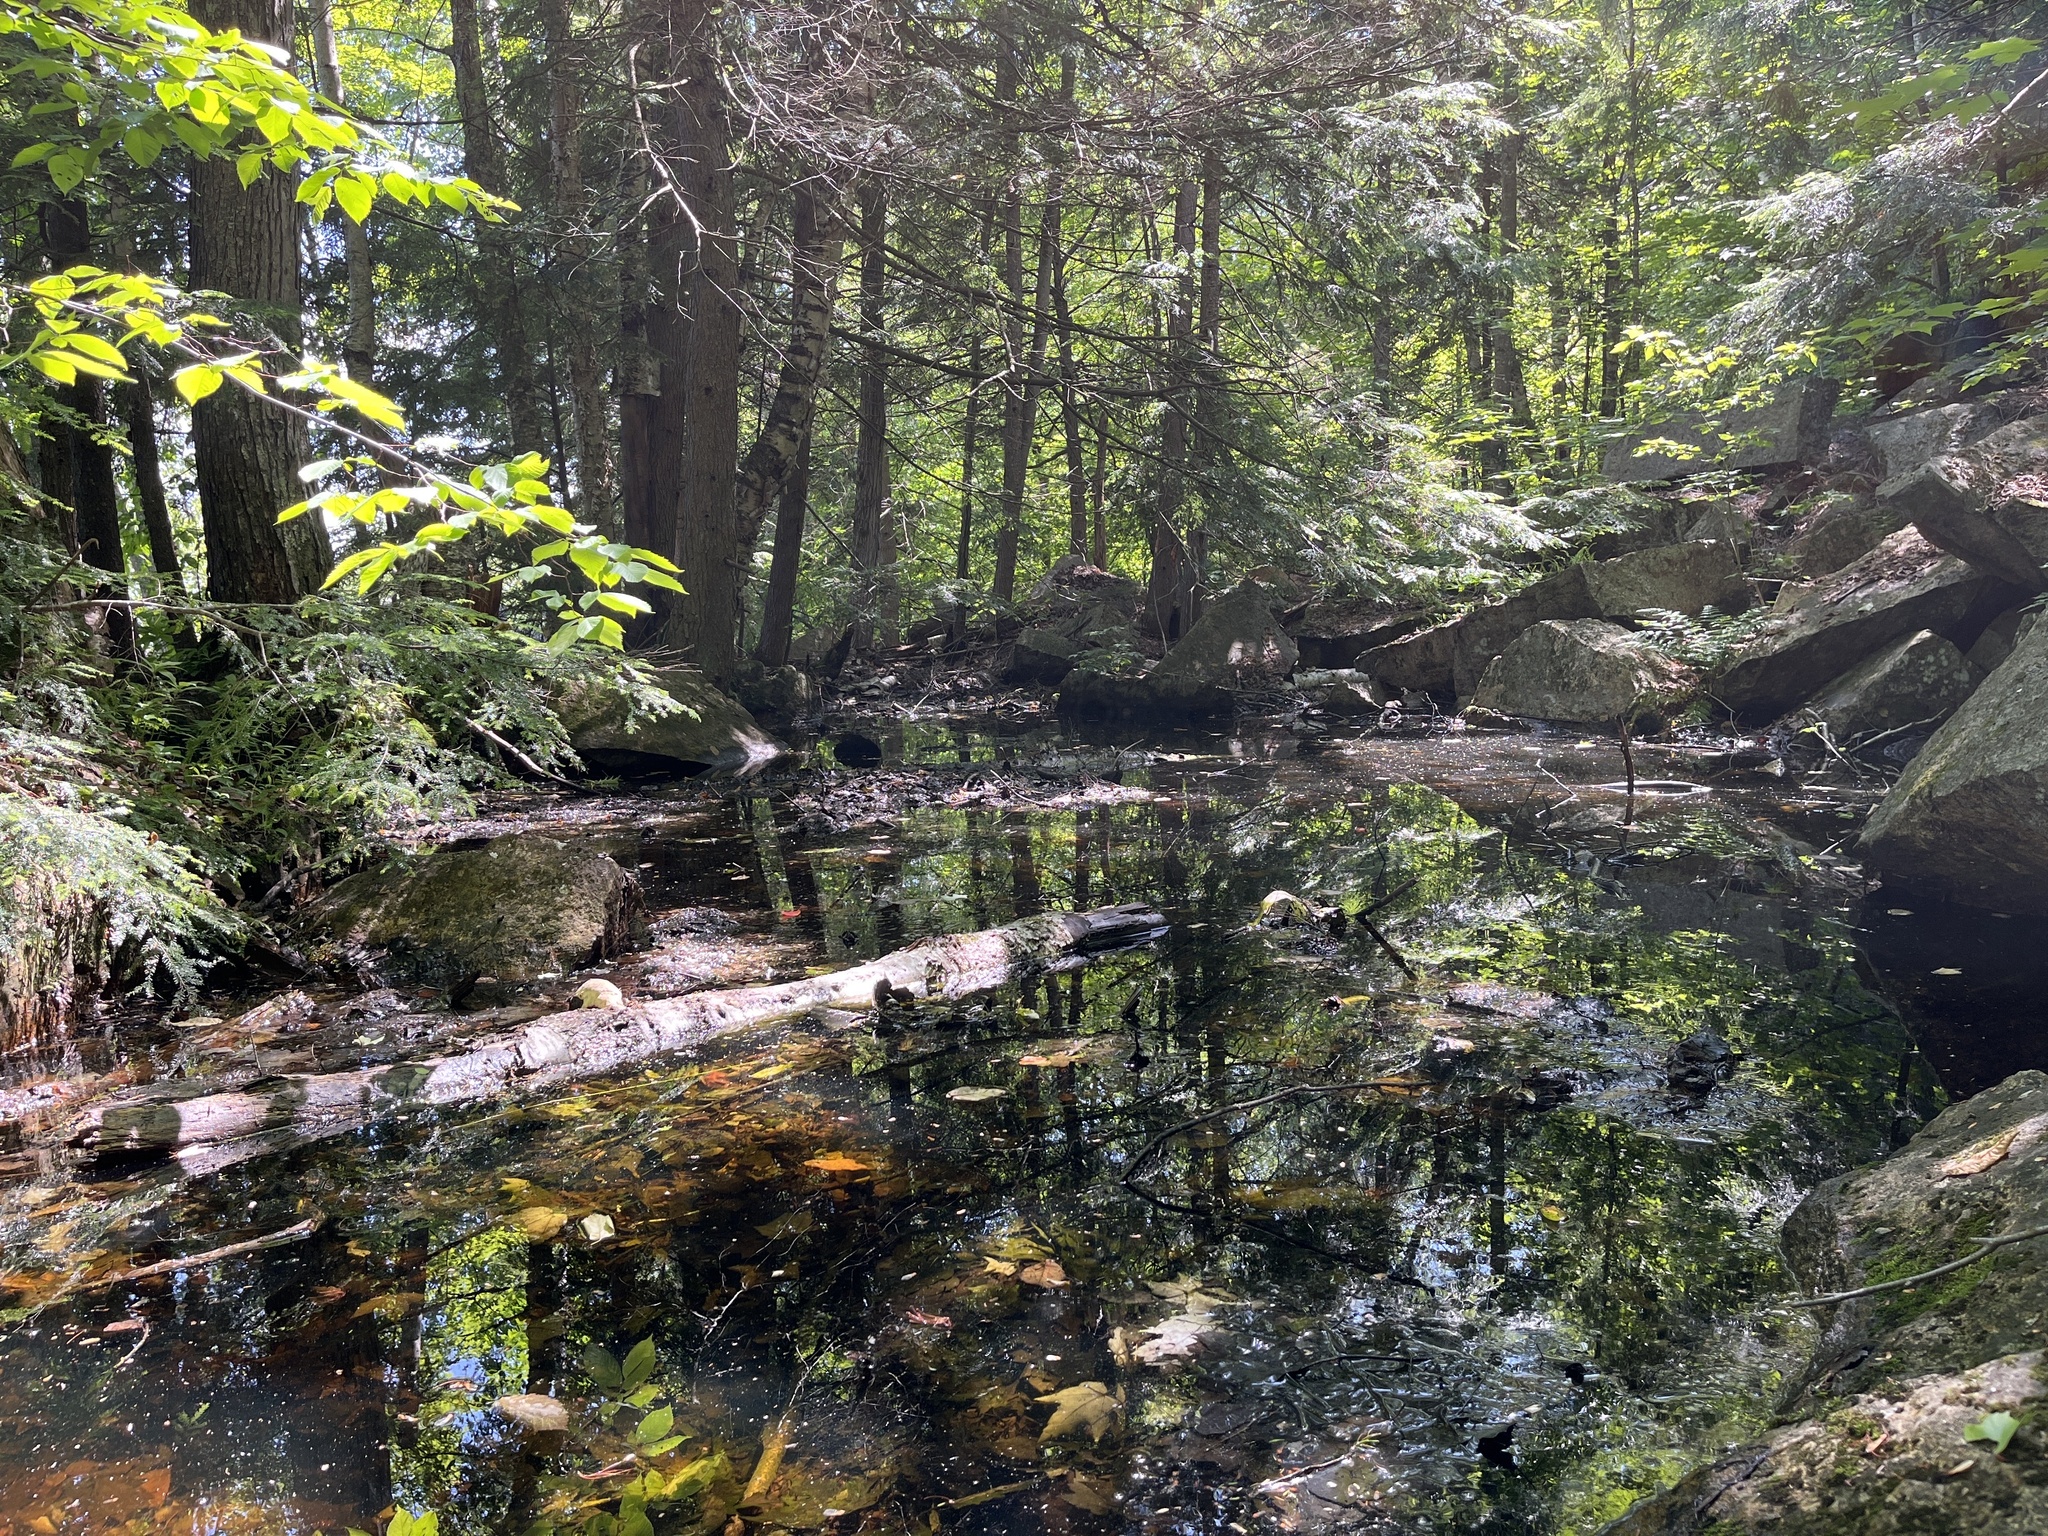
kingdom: Animalia
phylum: Chordata
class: Amphibia
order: Anura
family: Ranidae
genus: Lithobates
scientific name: Lithobates clamitans
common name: Green frog
